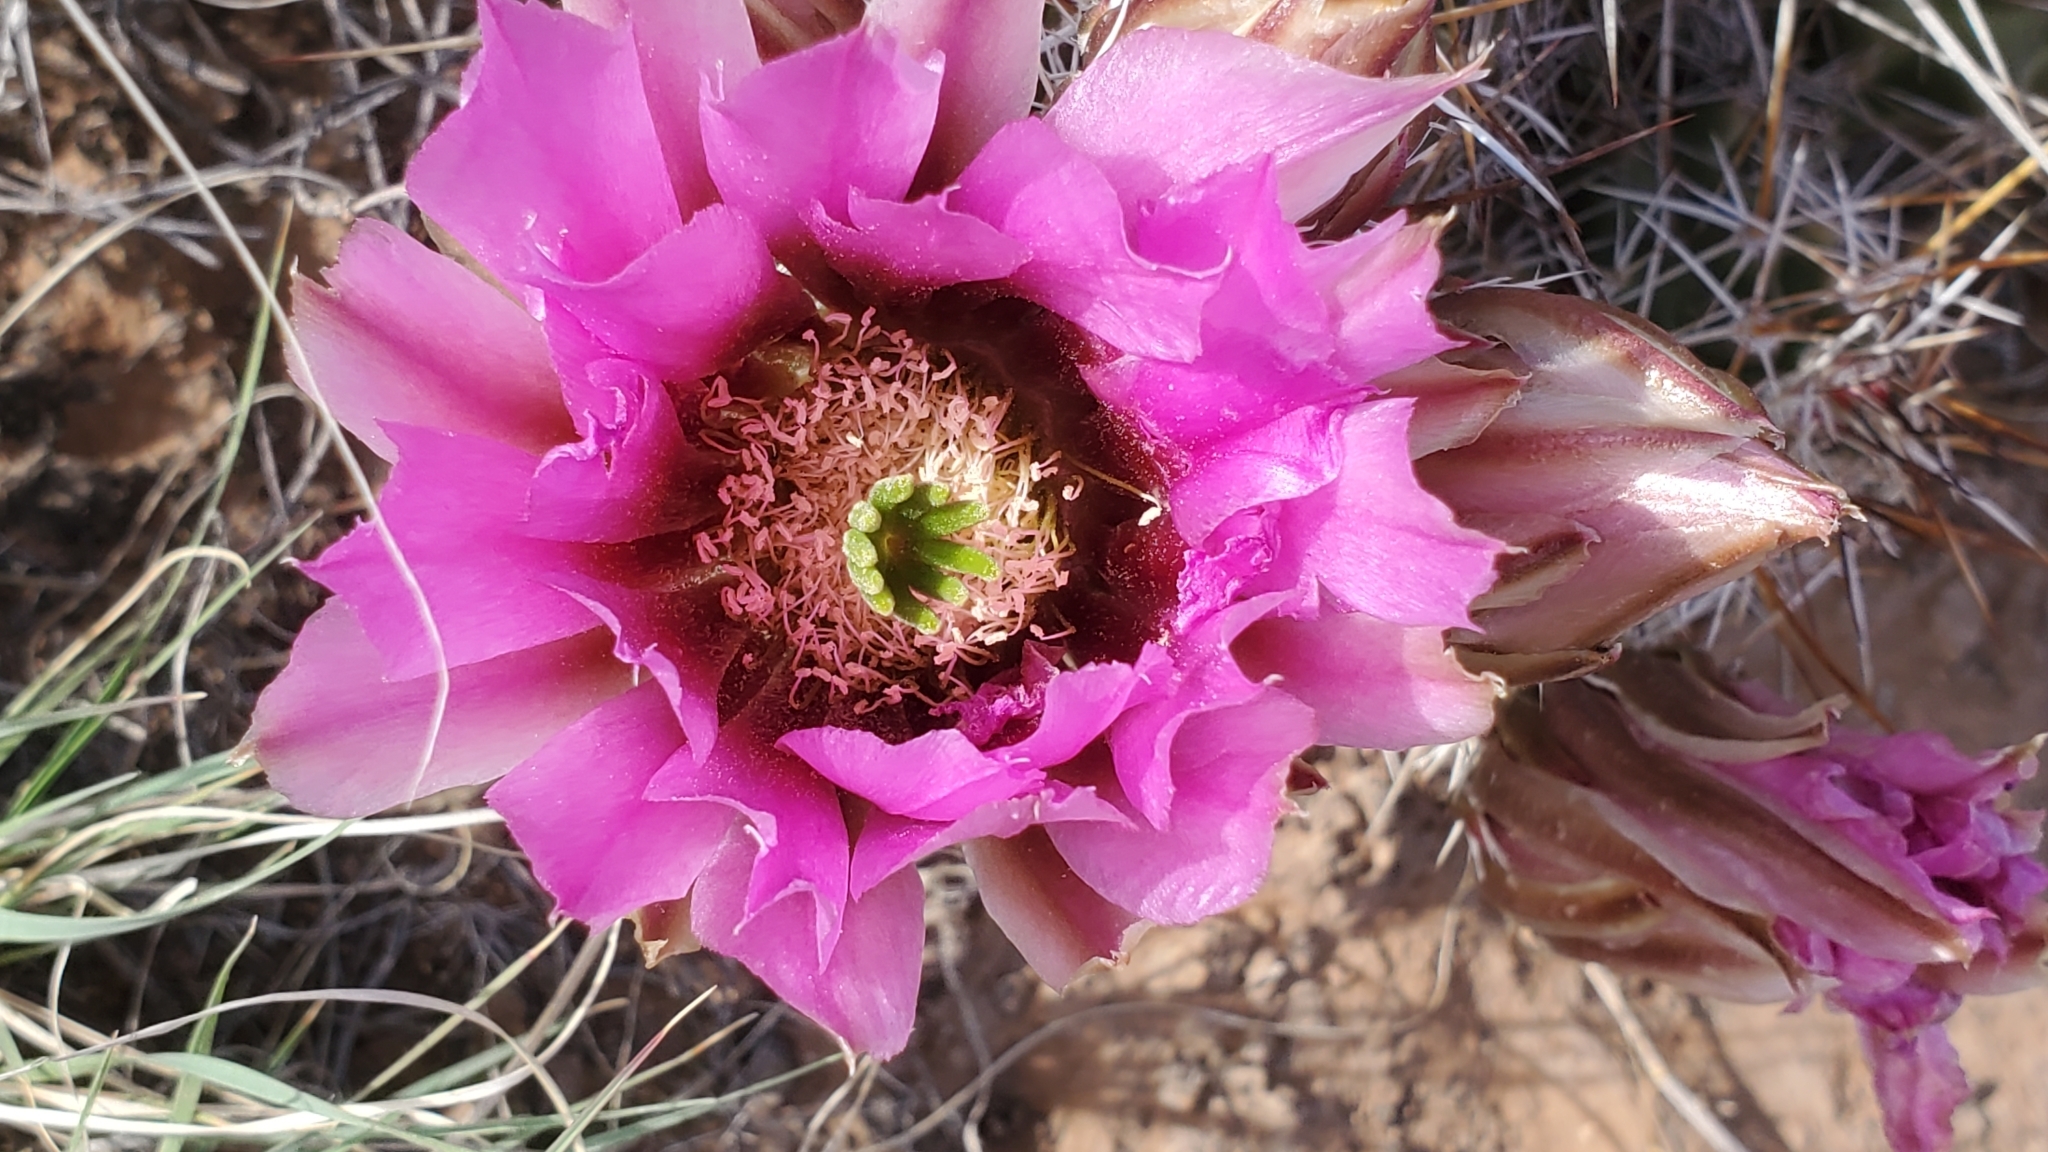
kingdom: Plantae
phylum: Tracheophyta
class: Magnoliopsida
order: Caryophyllales
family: Cactaceae
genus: Echinocereus
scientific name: Echinocereus fendleri
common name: Fendler's hedgehog cactus
